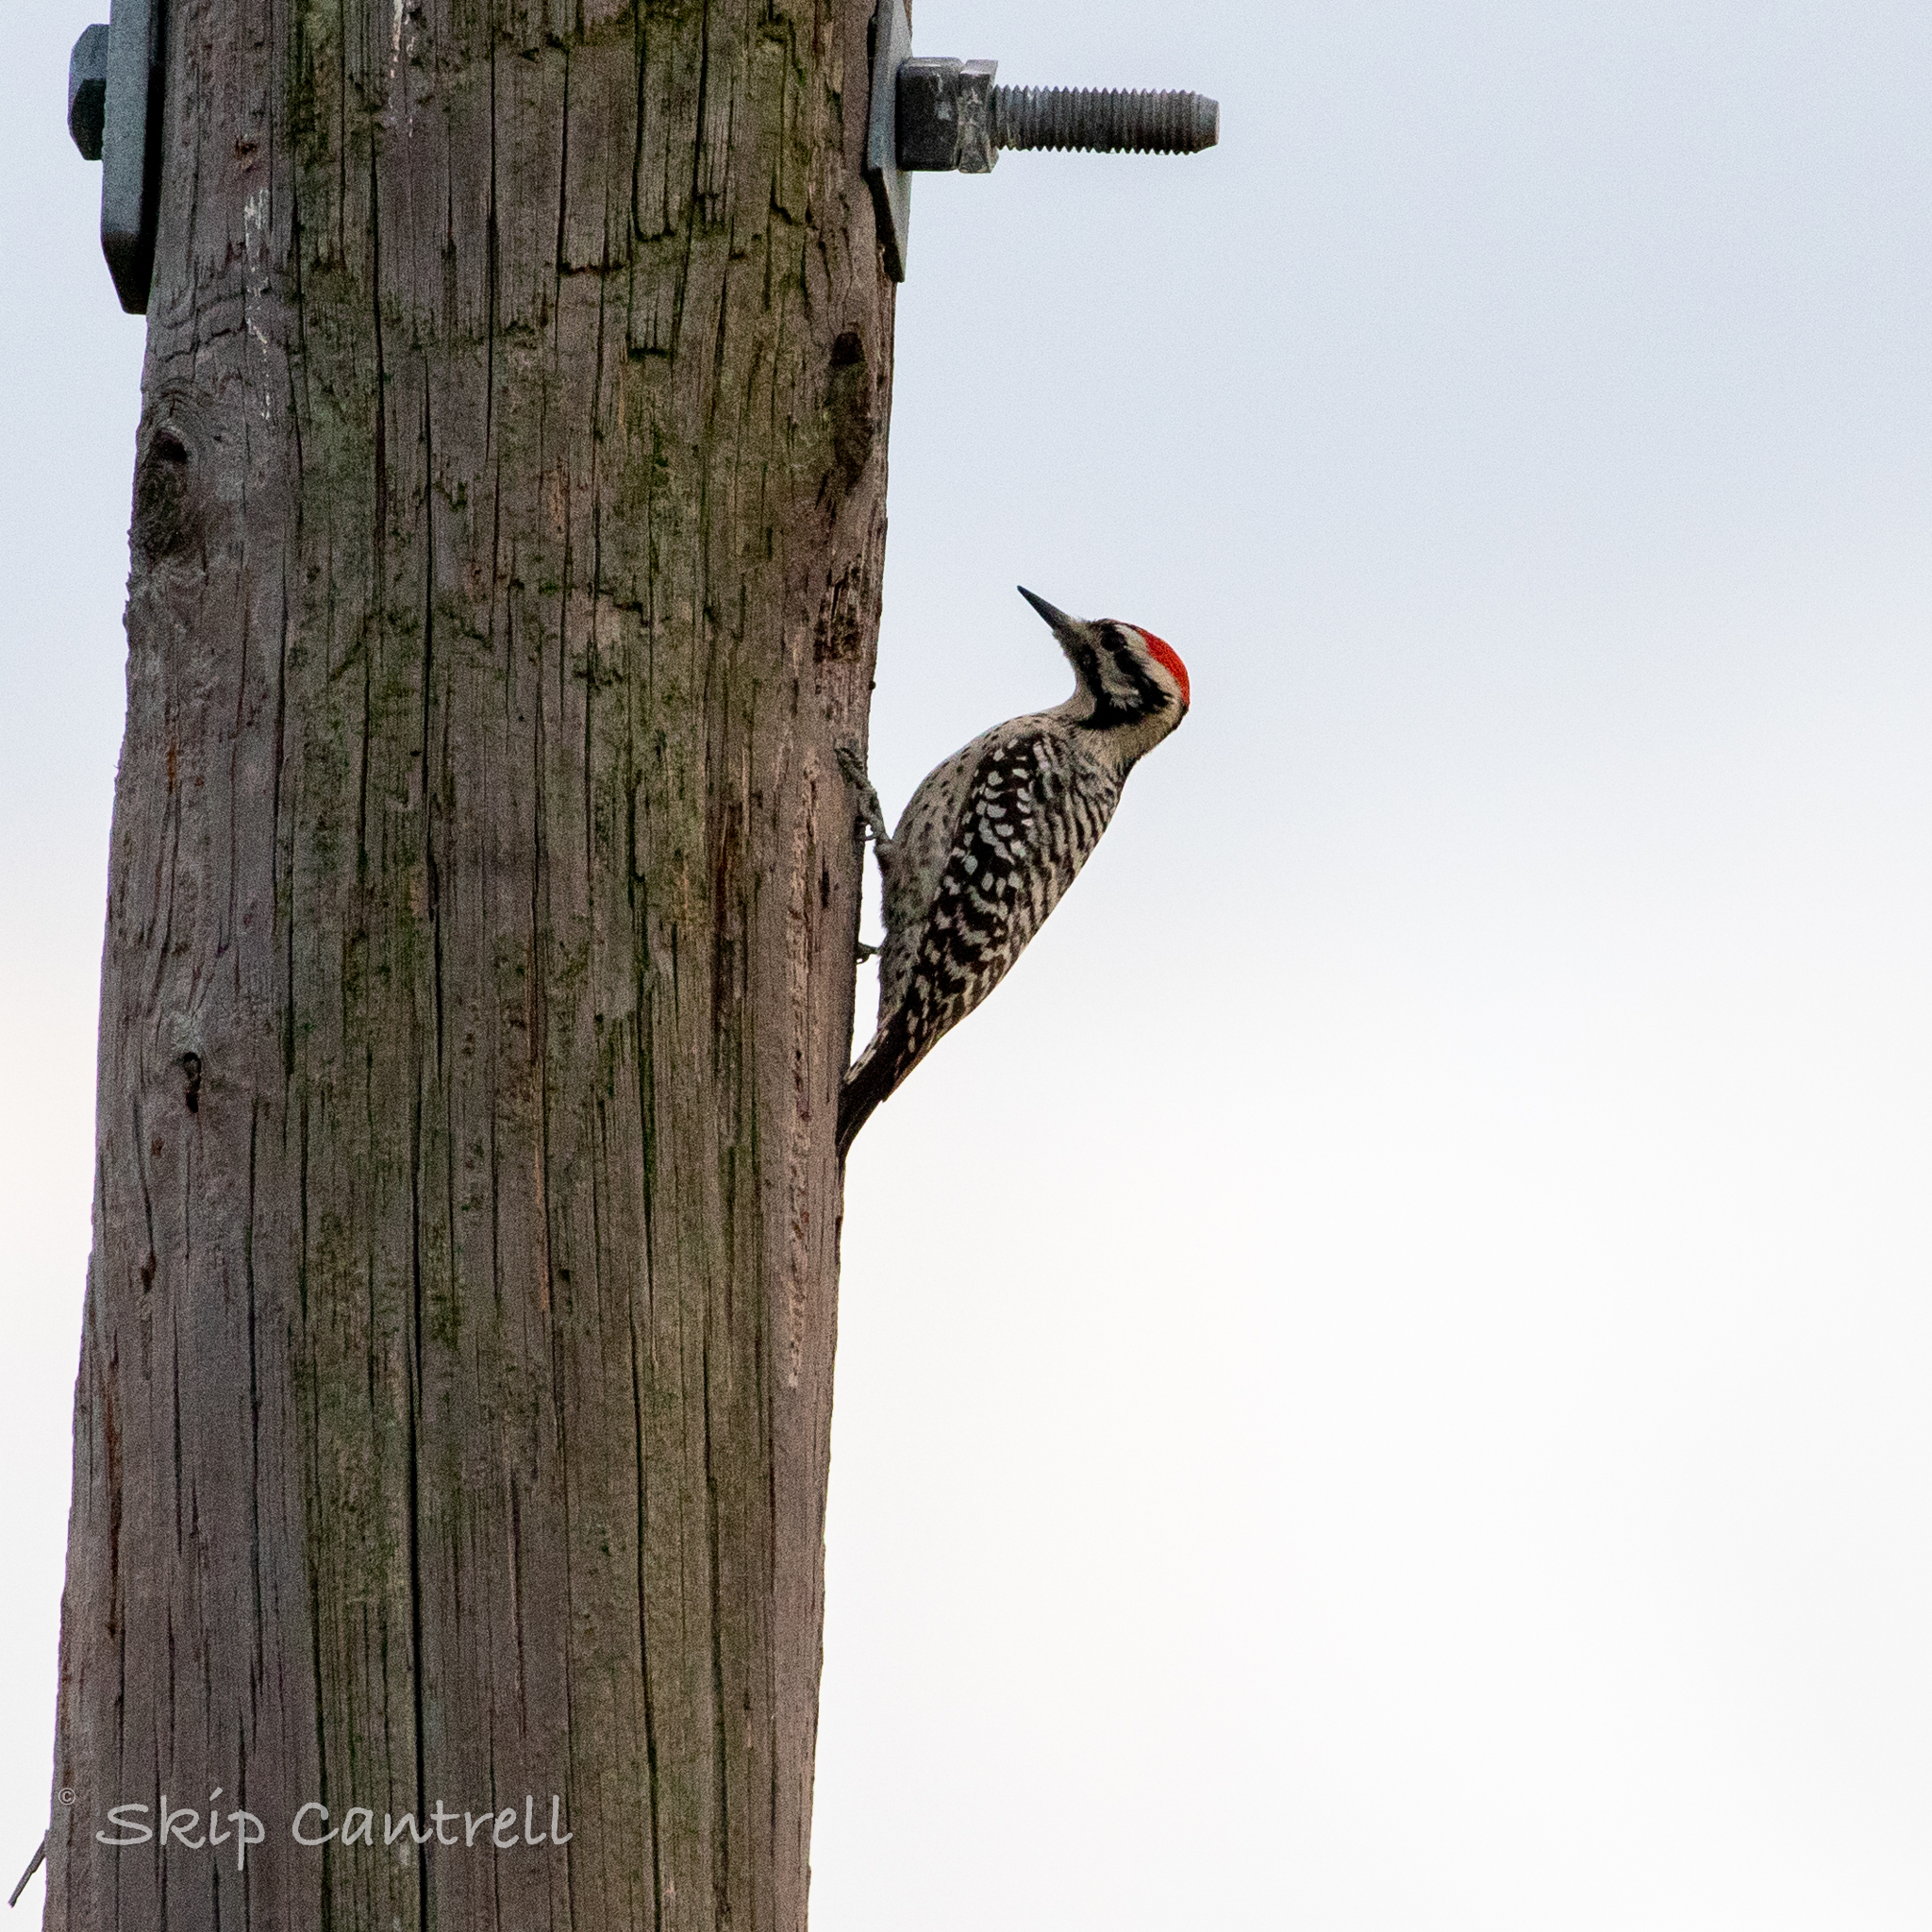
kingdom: Animalia
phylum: Chordata
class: Aves
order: Piciformes
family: Picidae
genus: Dryobates
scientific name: Dryobates scalaris
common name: Ladder-backed woodpecker
